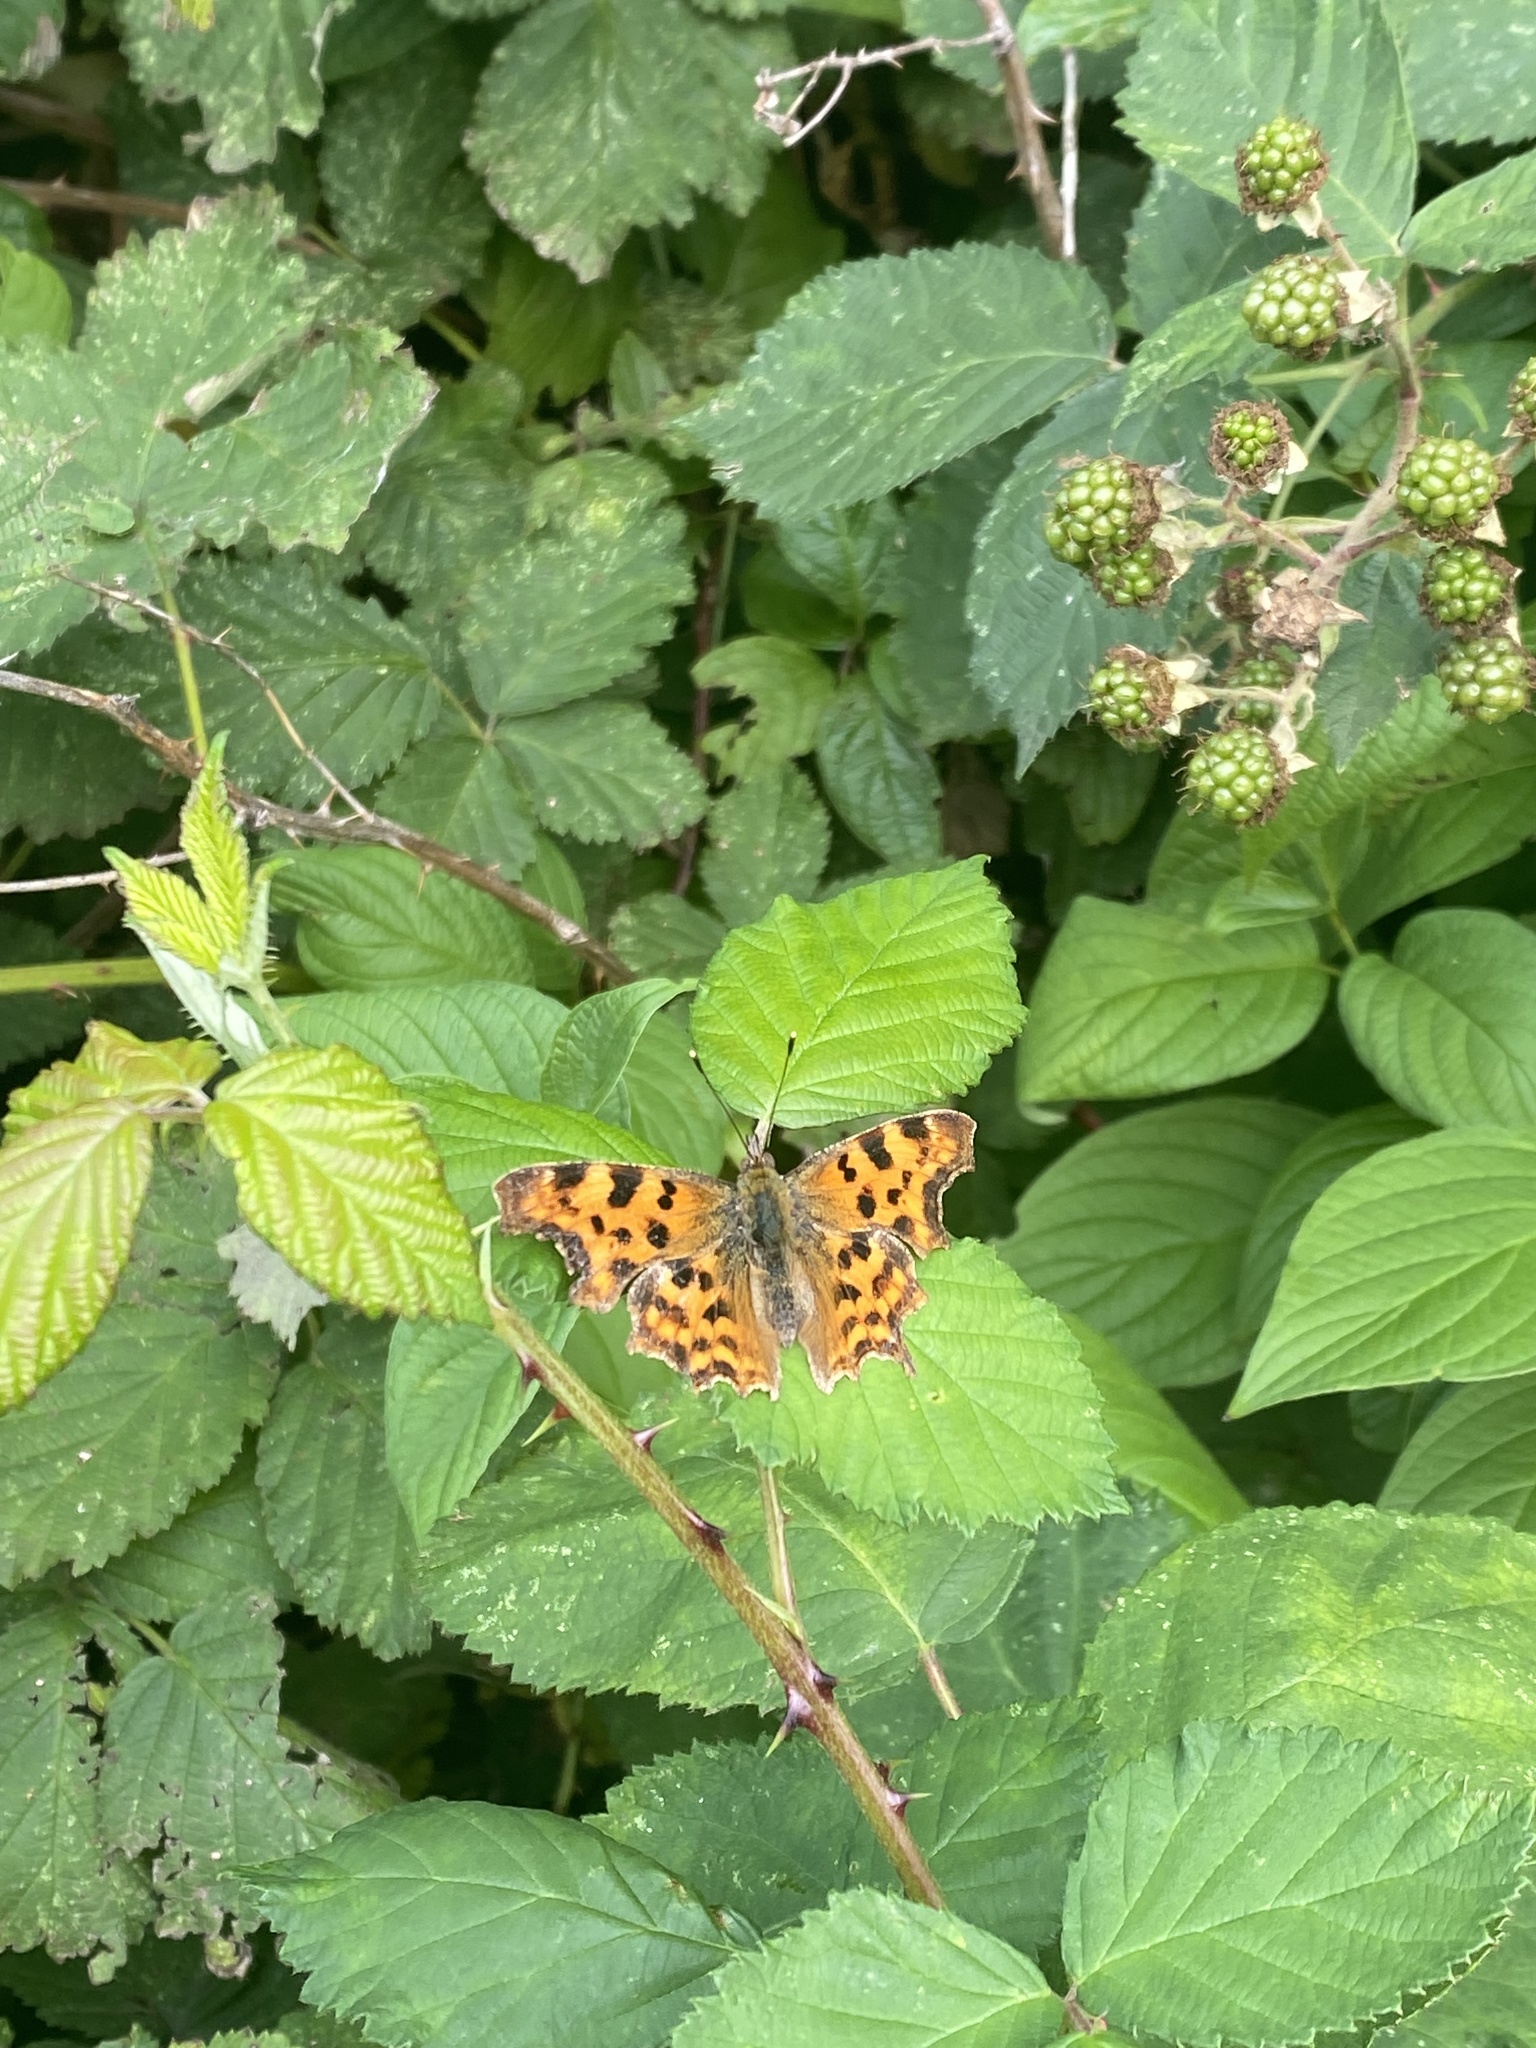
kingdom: Animalia
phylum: Arthropoda
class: Insecta
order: Lepidoptera
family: Nymphalidae
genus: Polygonia
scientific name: Polygonia c-album
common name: Comma
